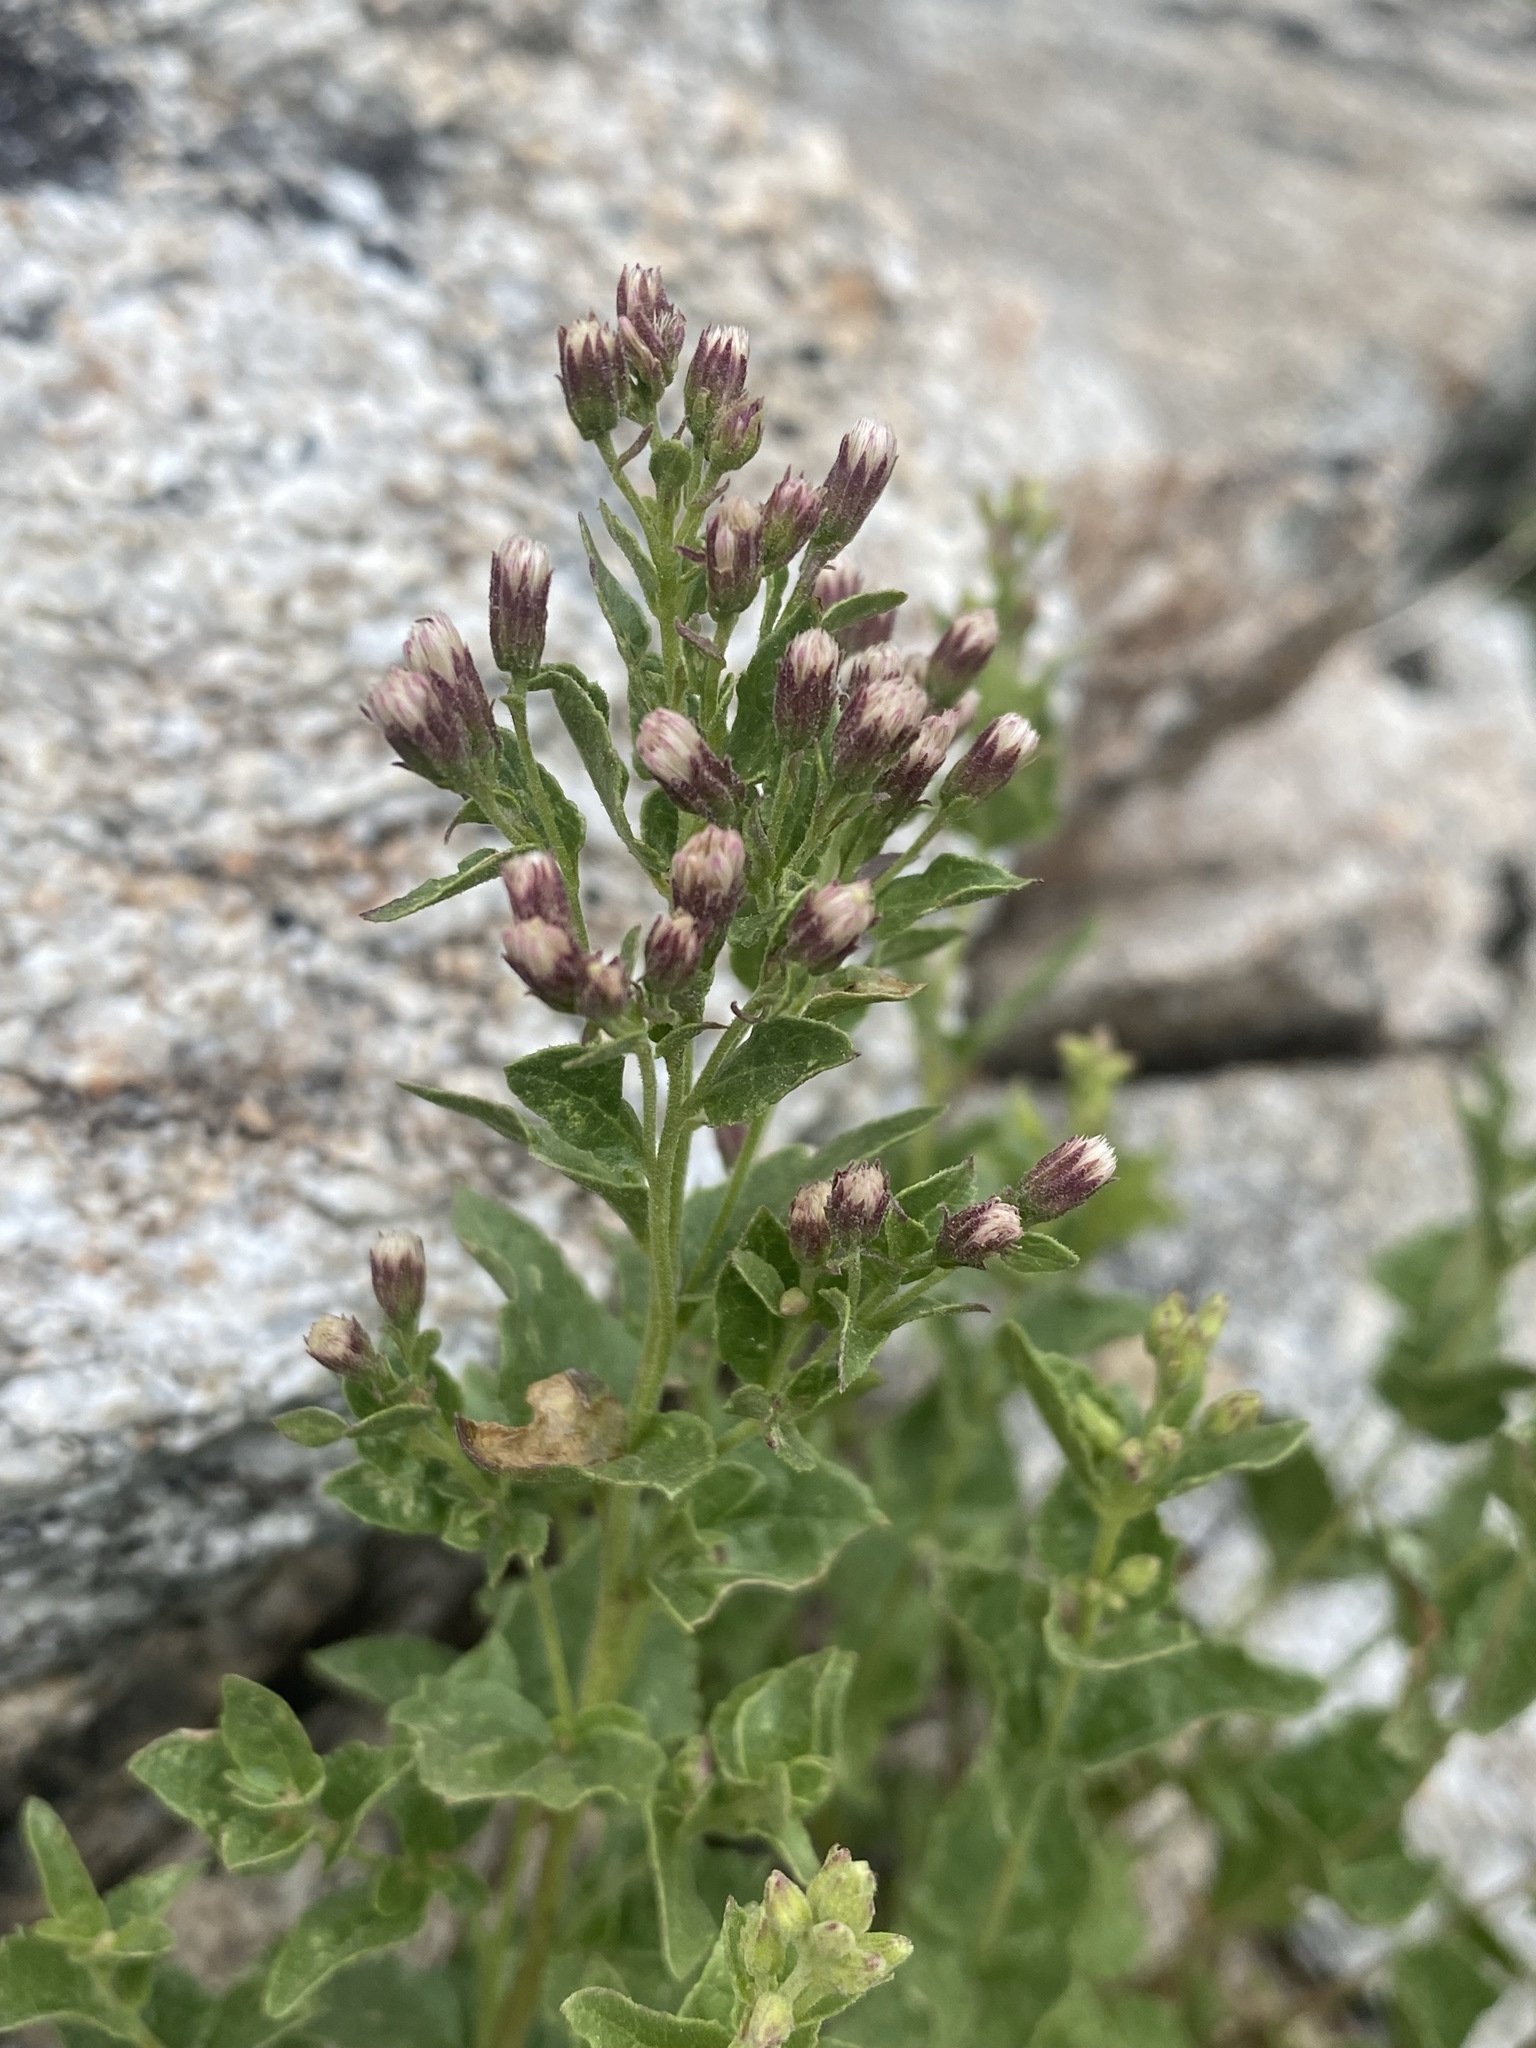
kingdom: Plantae
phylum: Tracheophyta
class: Magnoliopsida
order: Asterales
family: Asteraceae
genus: Ageratina
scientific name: Ageratina occidentalis
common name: Western snakeroot
